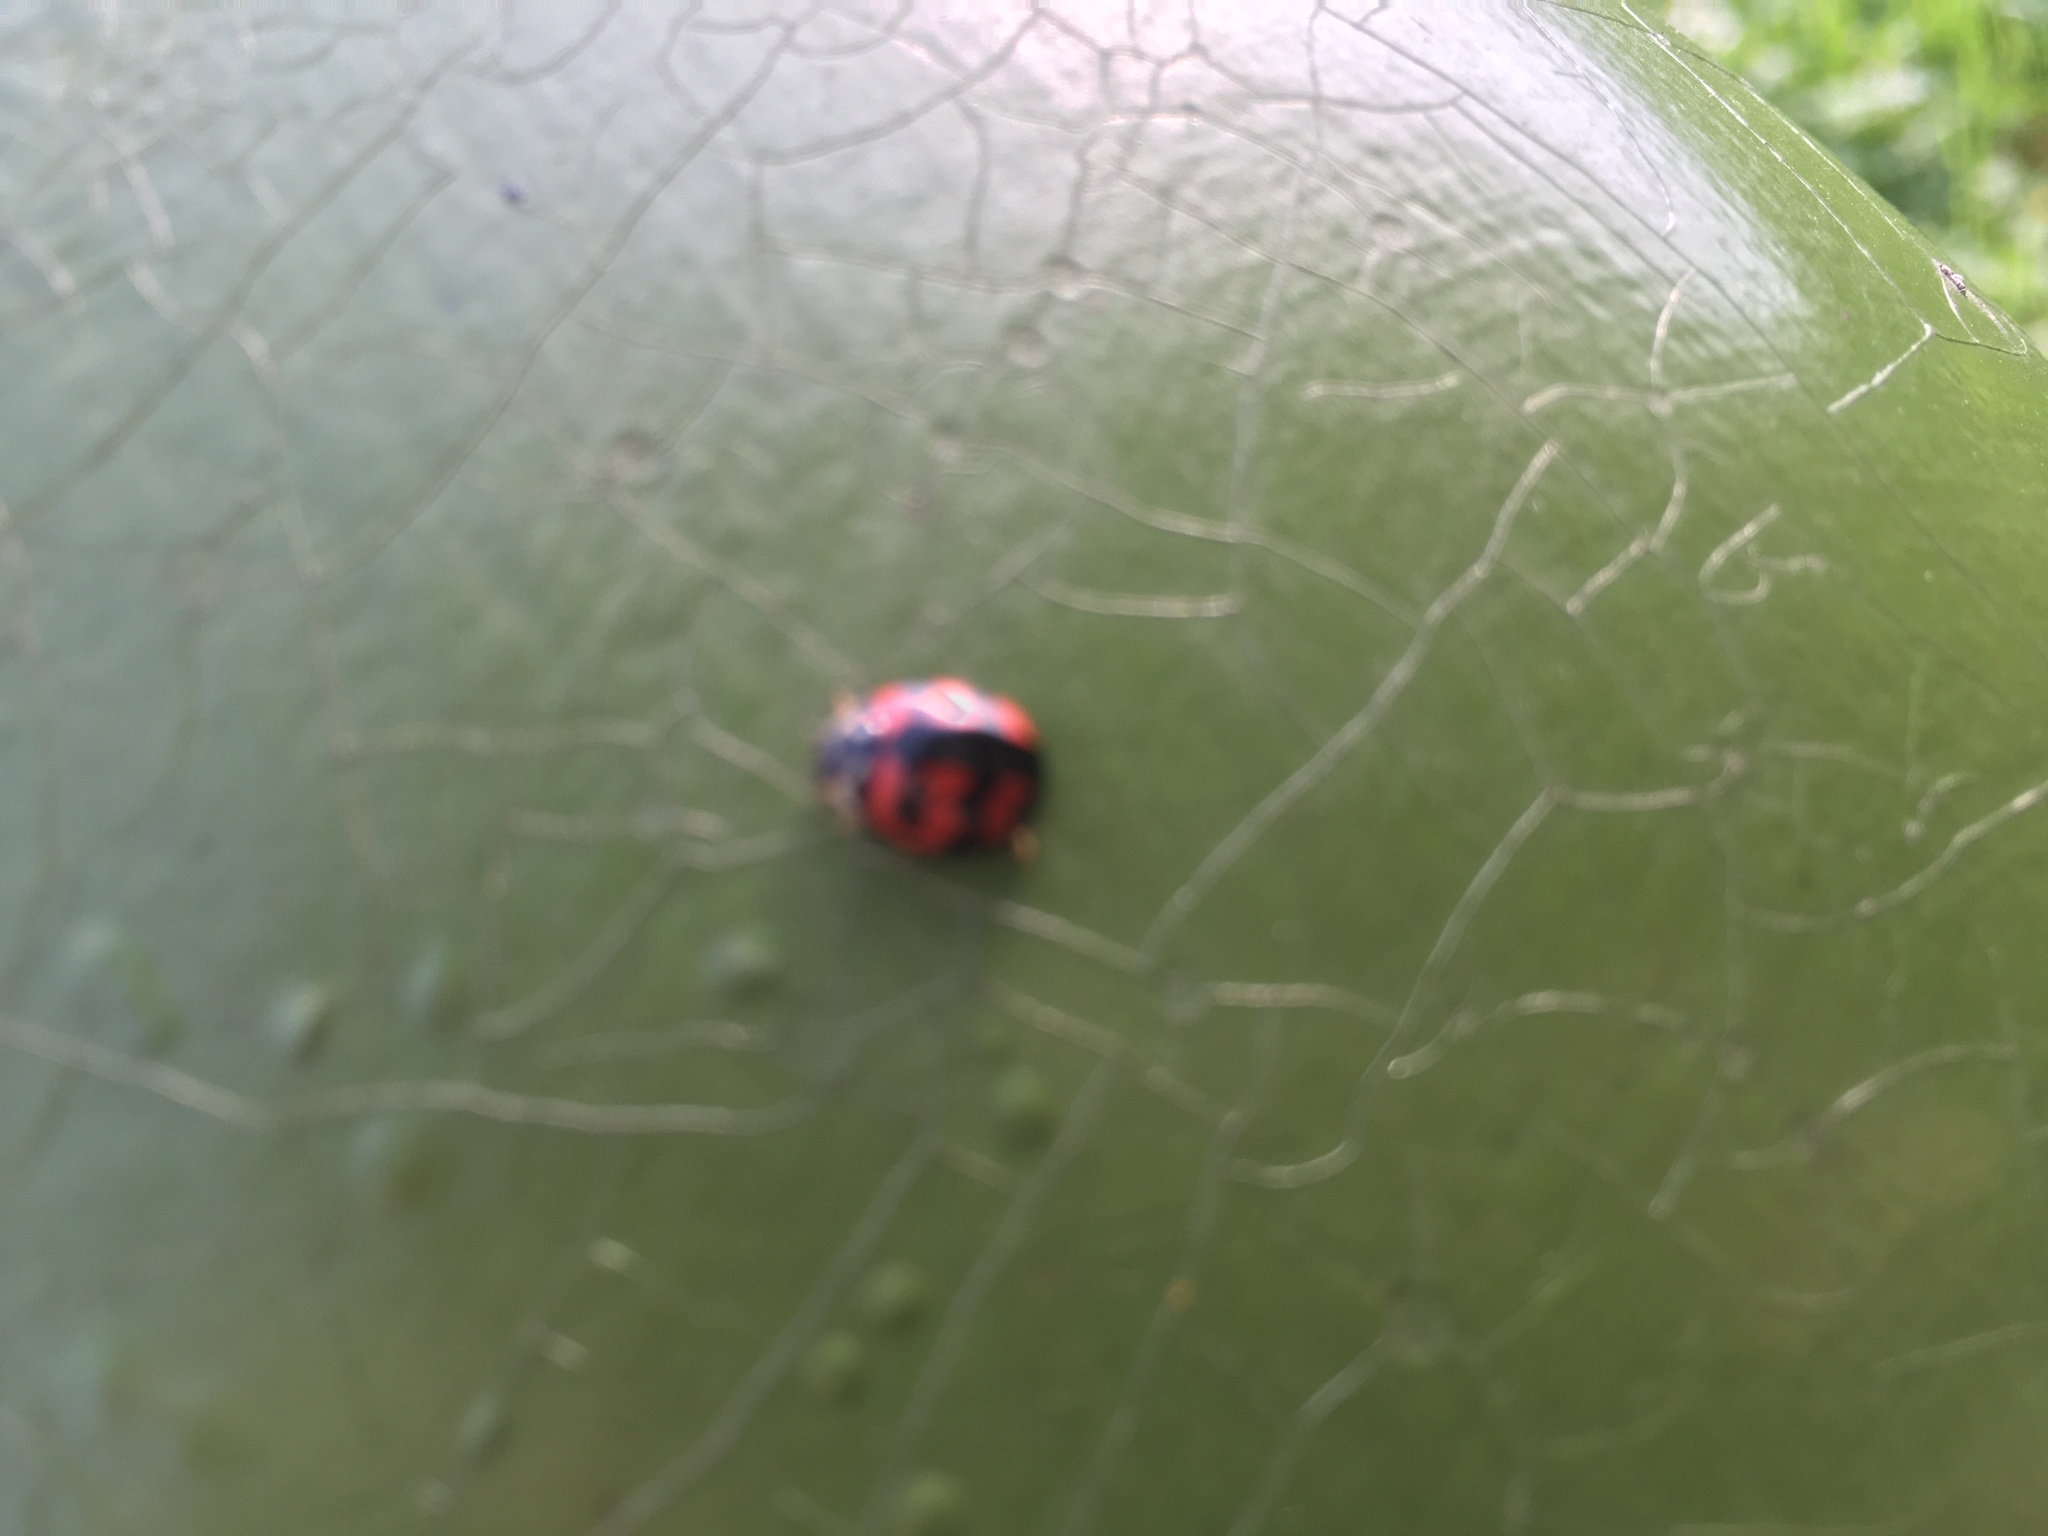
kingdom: Animalia
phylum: Arthropoda
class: Insecta
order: Coleoptera
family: Coccinellidae
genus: Cheilomenes
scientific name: Cheilomenes sexmaculata
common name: Ladybird beetle
